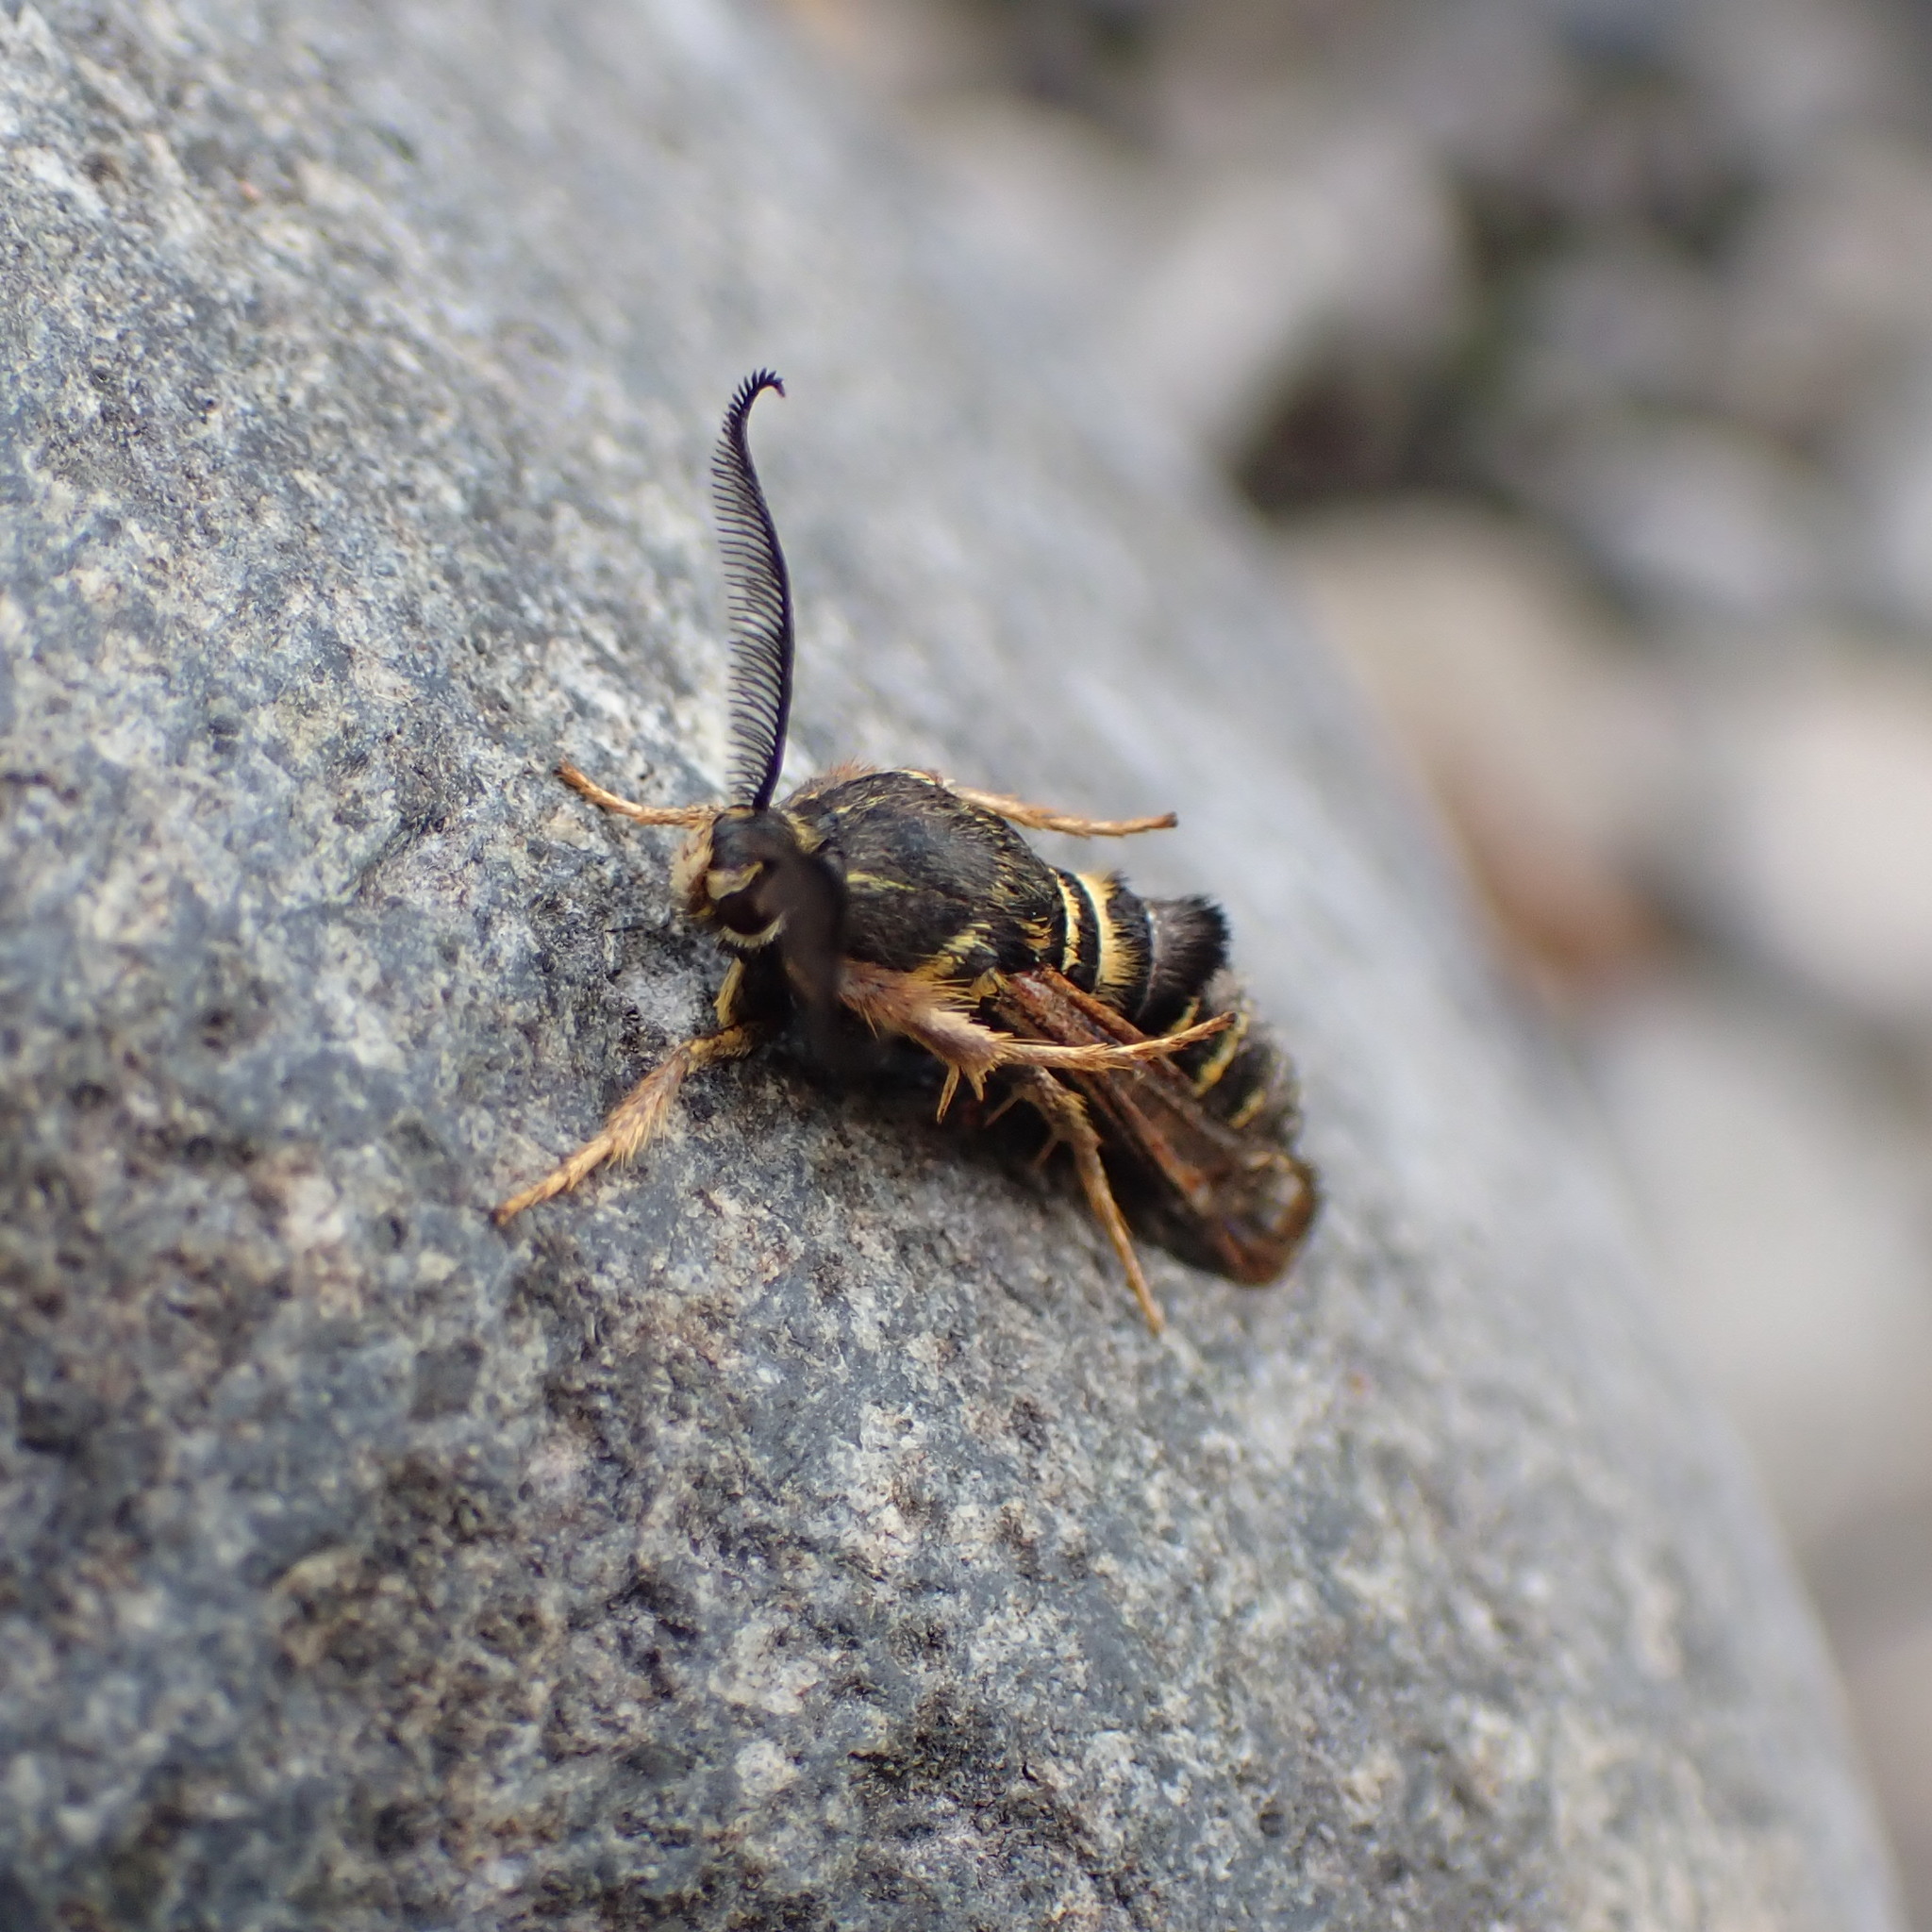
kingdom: Animalia
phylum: Arthropoda
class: Insecta
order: Lepidoptera
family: Sesiidae
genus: Pennisetia
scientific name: Pennisetia marginatum
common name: Raspberry crown borer
